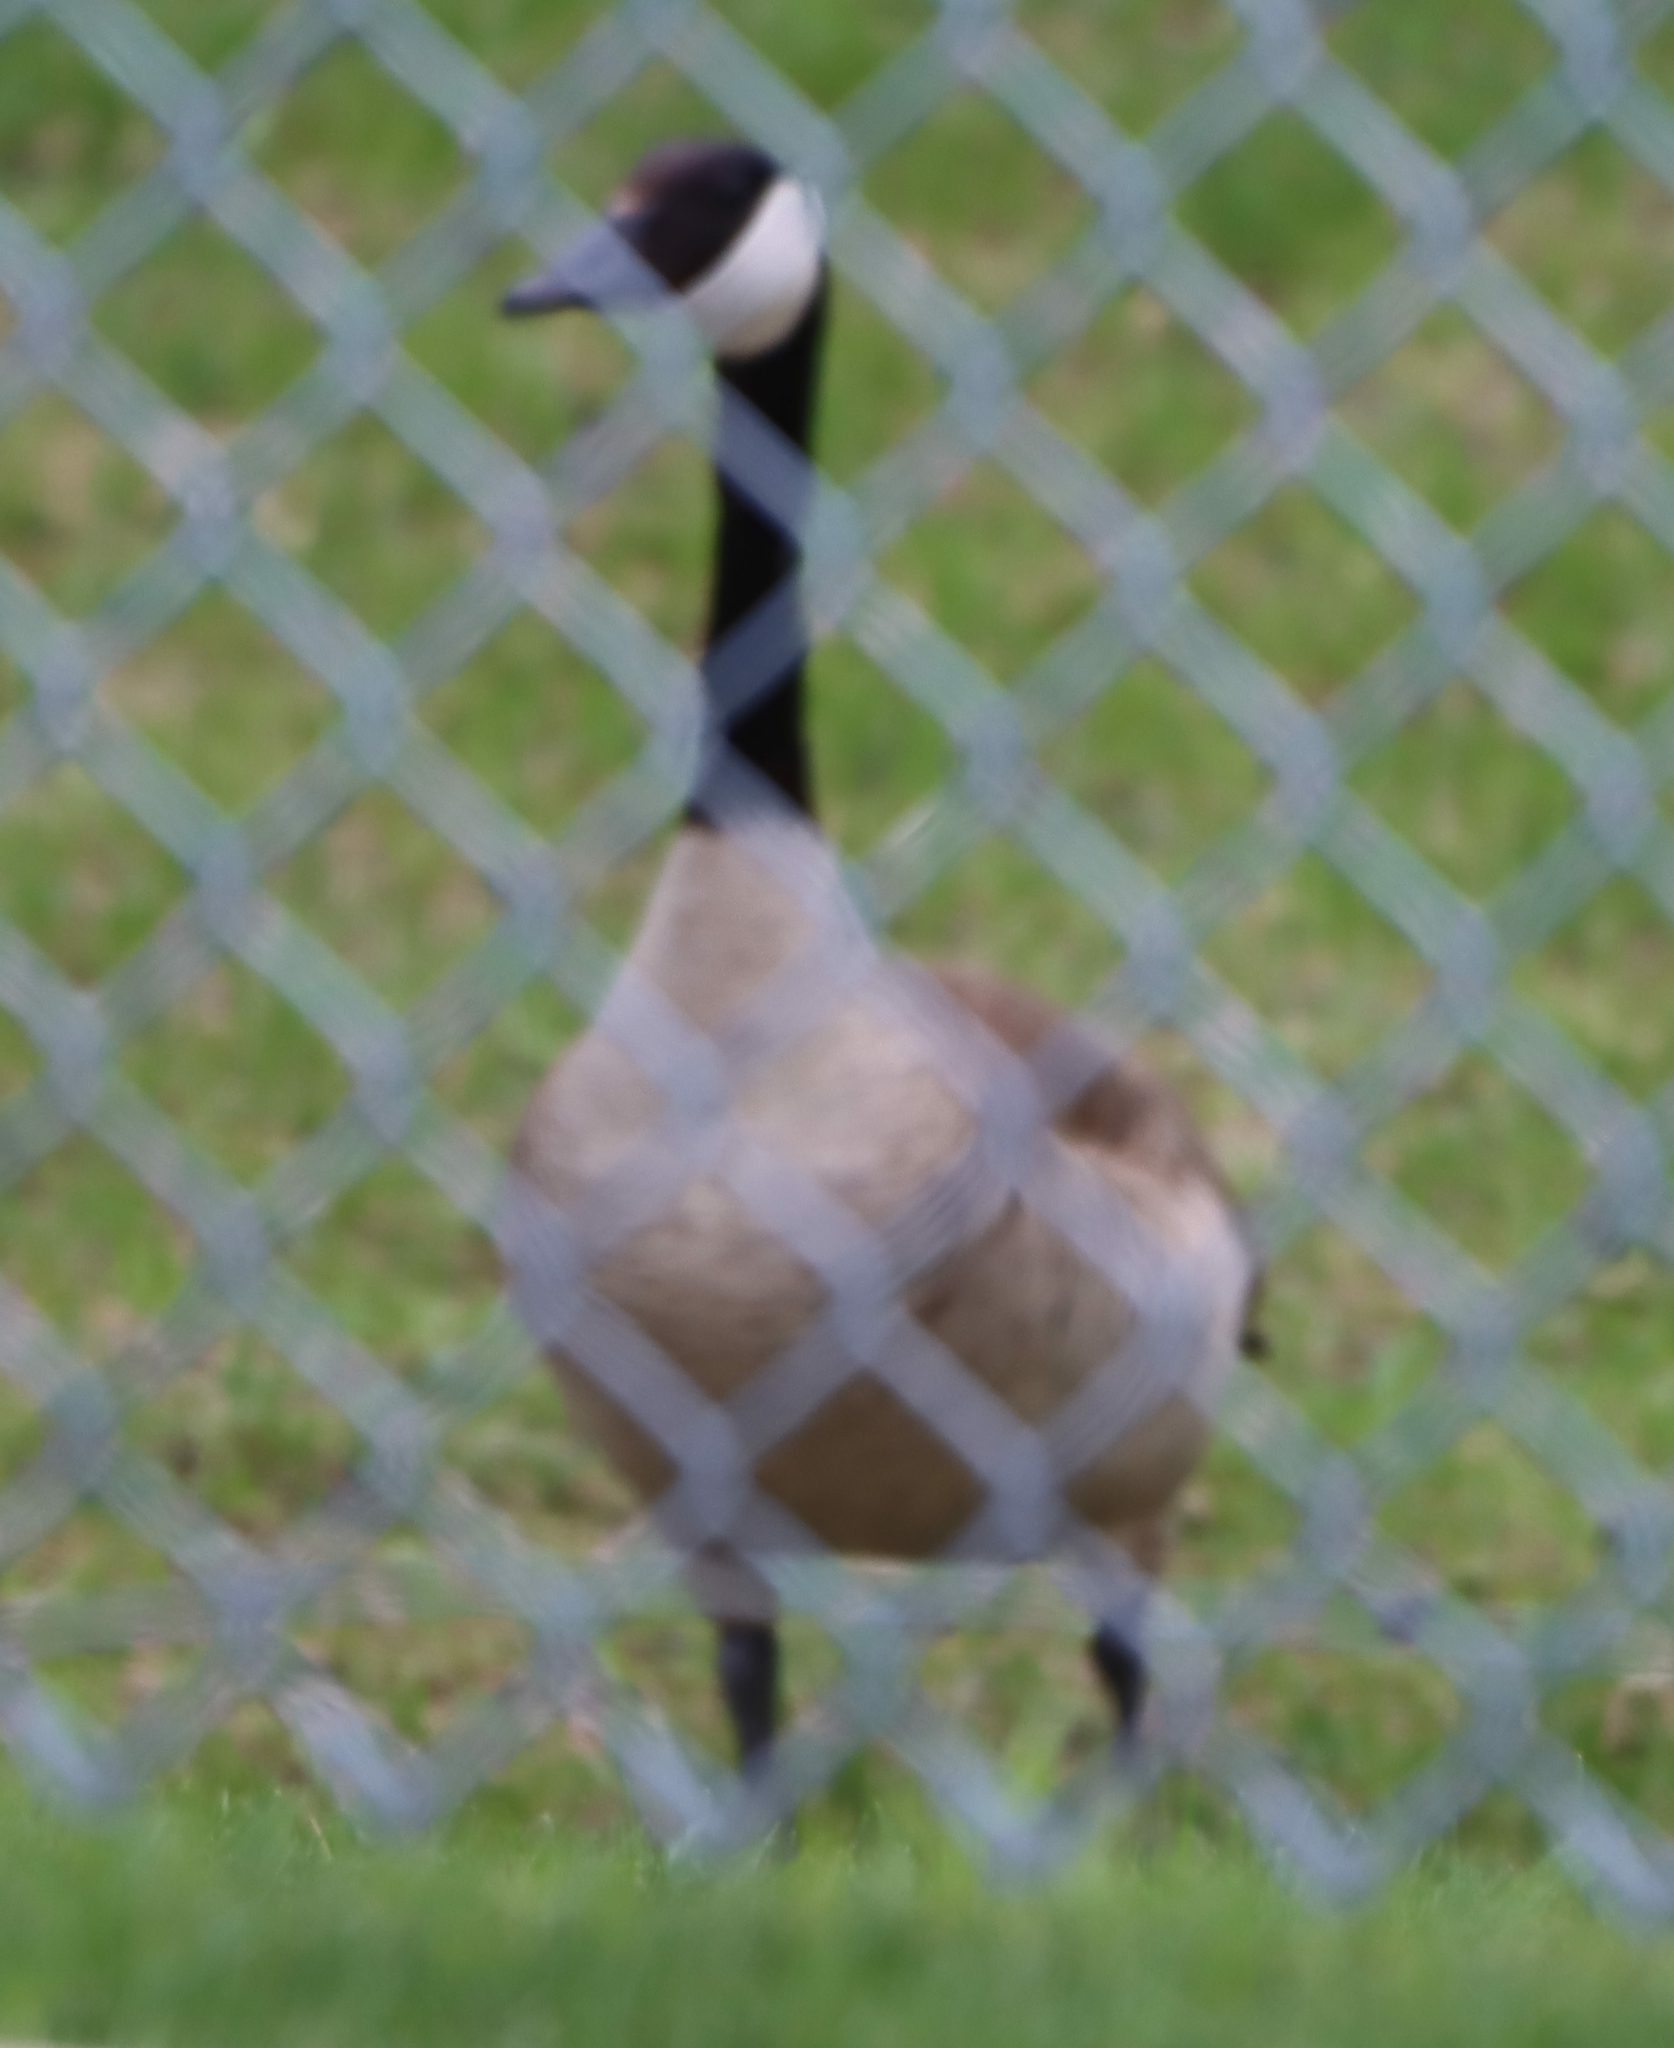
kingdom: Animalia
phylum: Chordata
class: Aves
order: Anseriformes
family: Anatidae
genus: Branta
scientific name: Branta canadensis
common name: Canada goose
